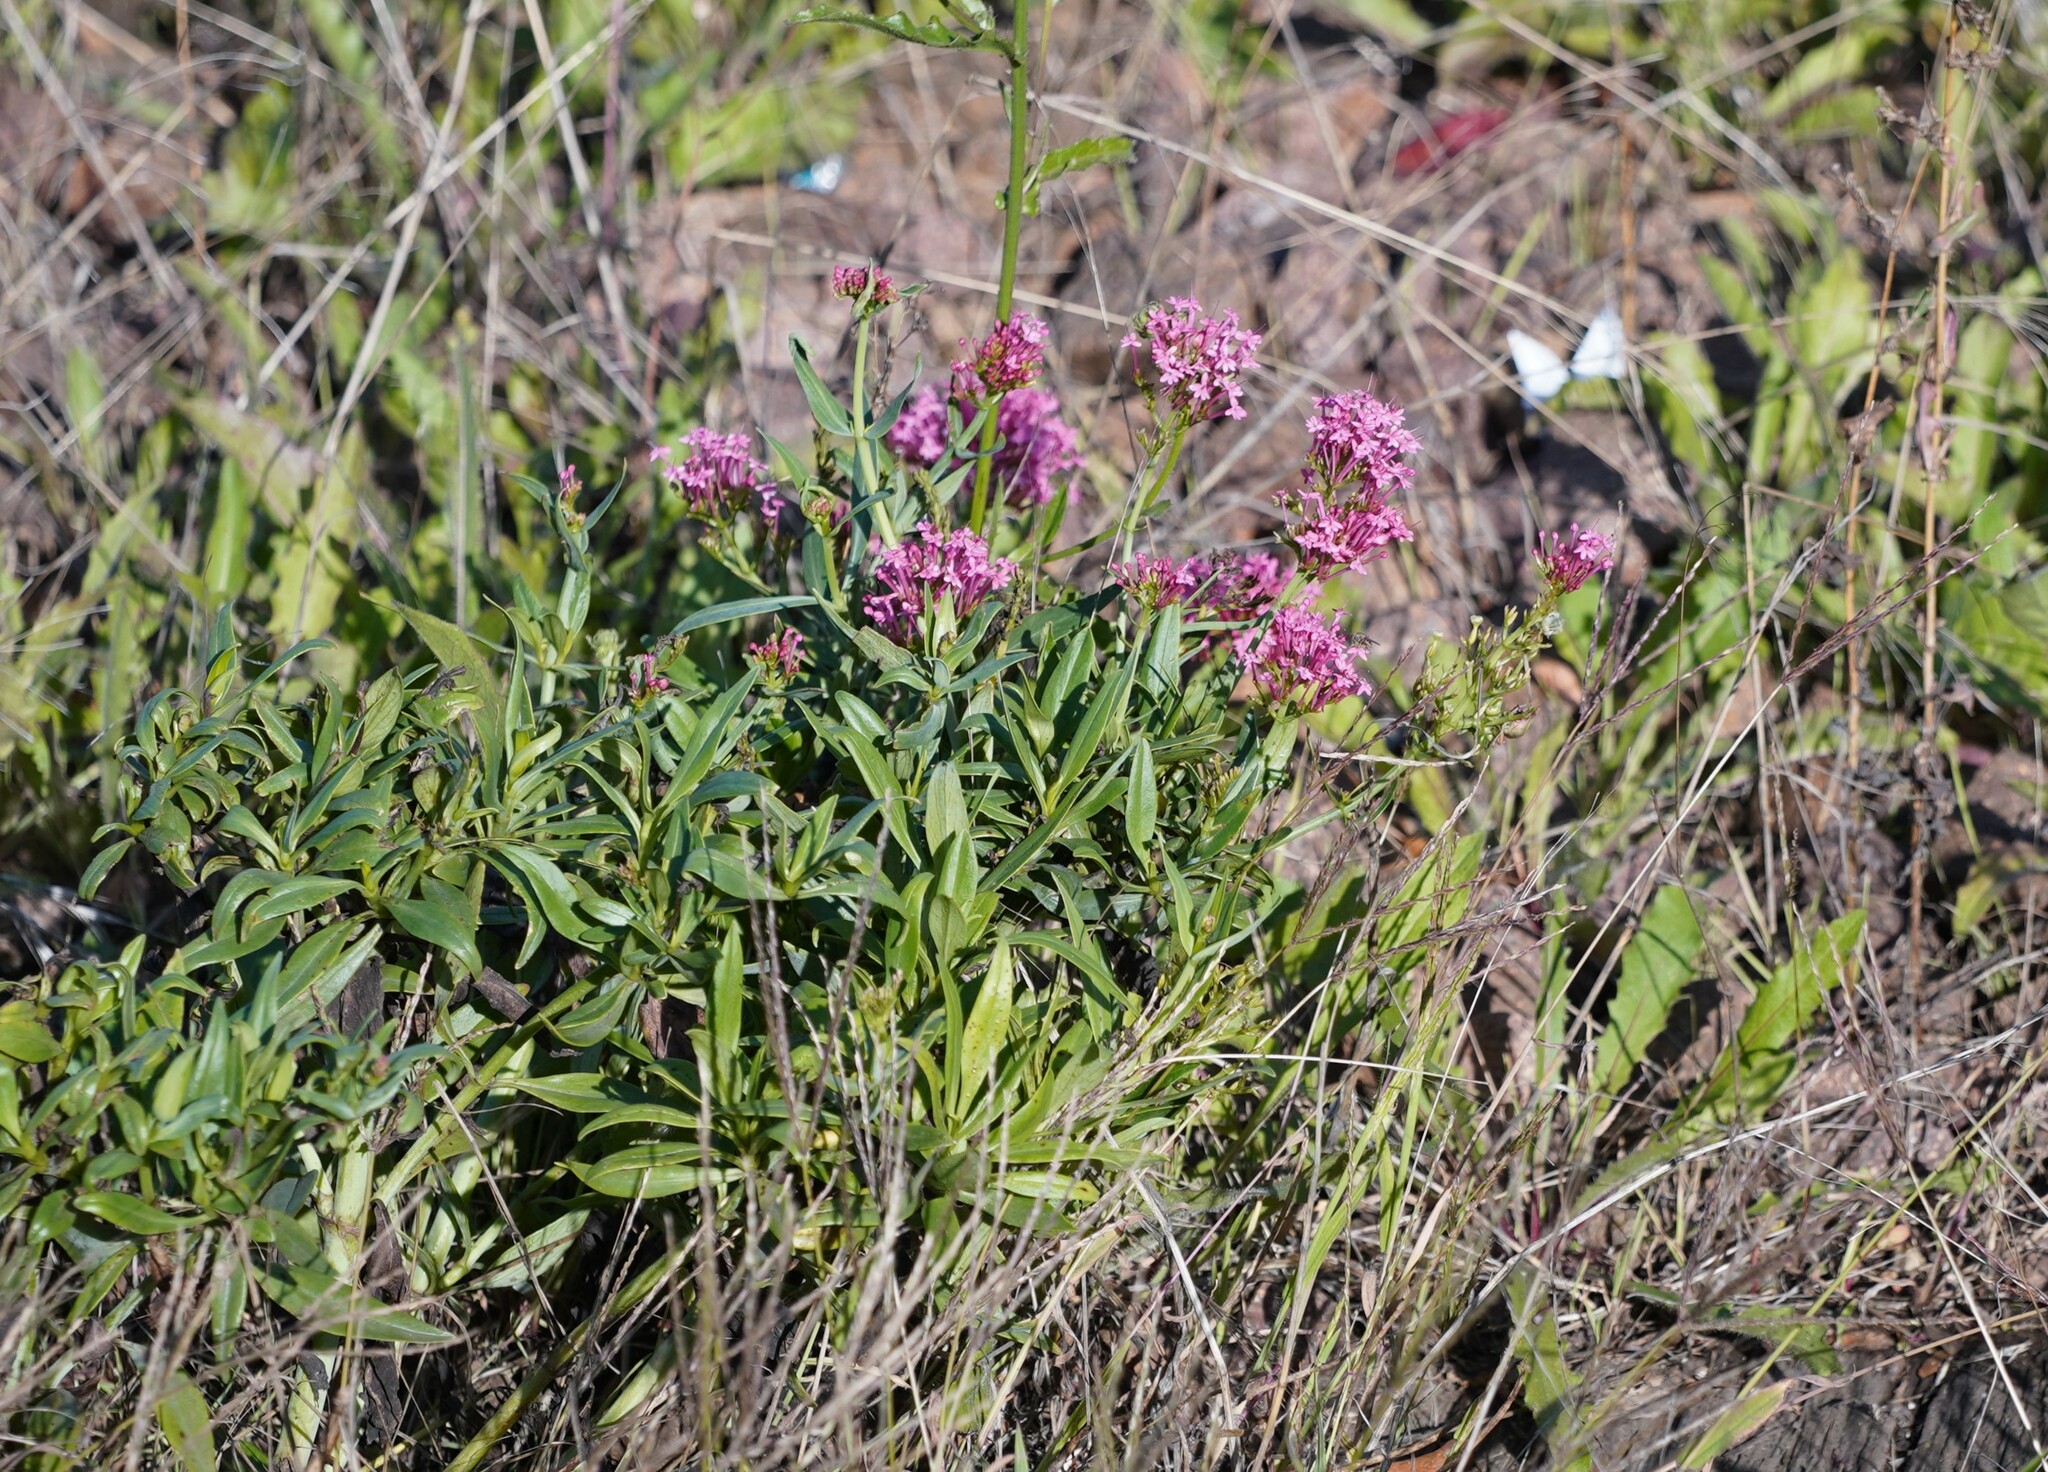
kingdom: Plantae
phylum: Tracheophyta
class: Magnoliopsida
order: Dipsacales
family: Caprifoliaceae
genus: Centranthus
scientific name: Centranthus ruber
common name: Red valerian
